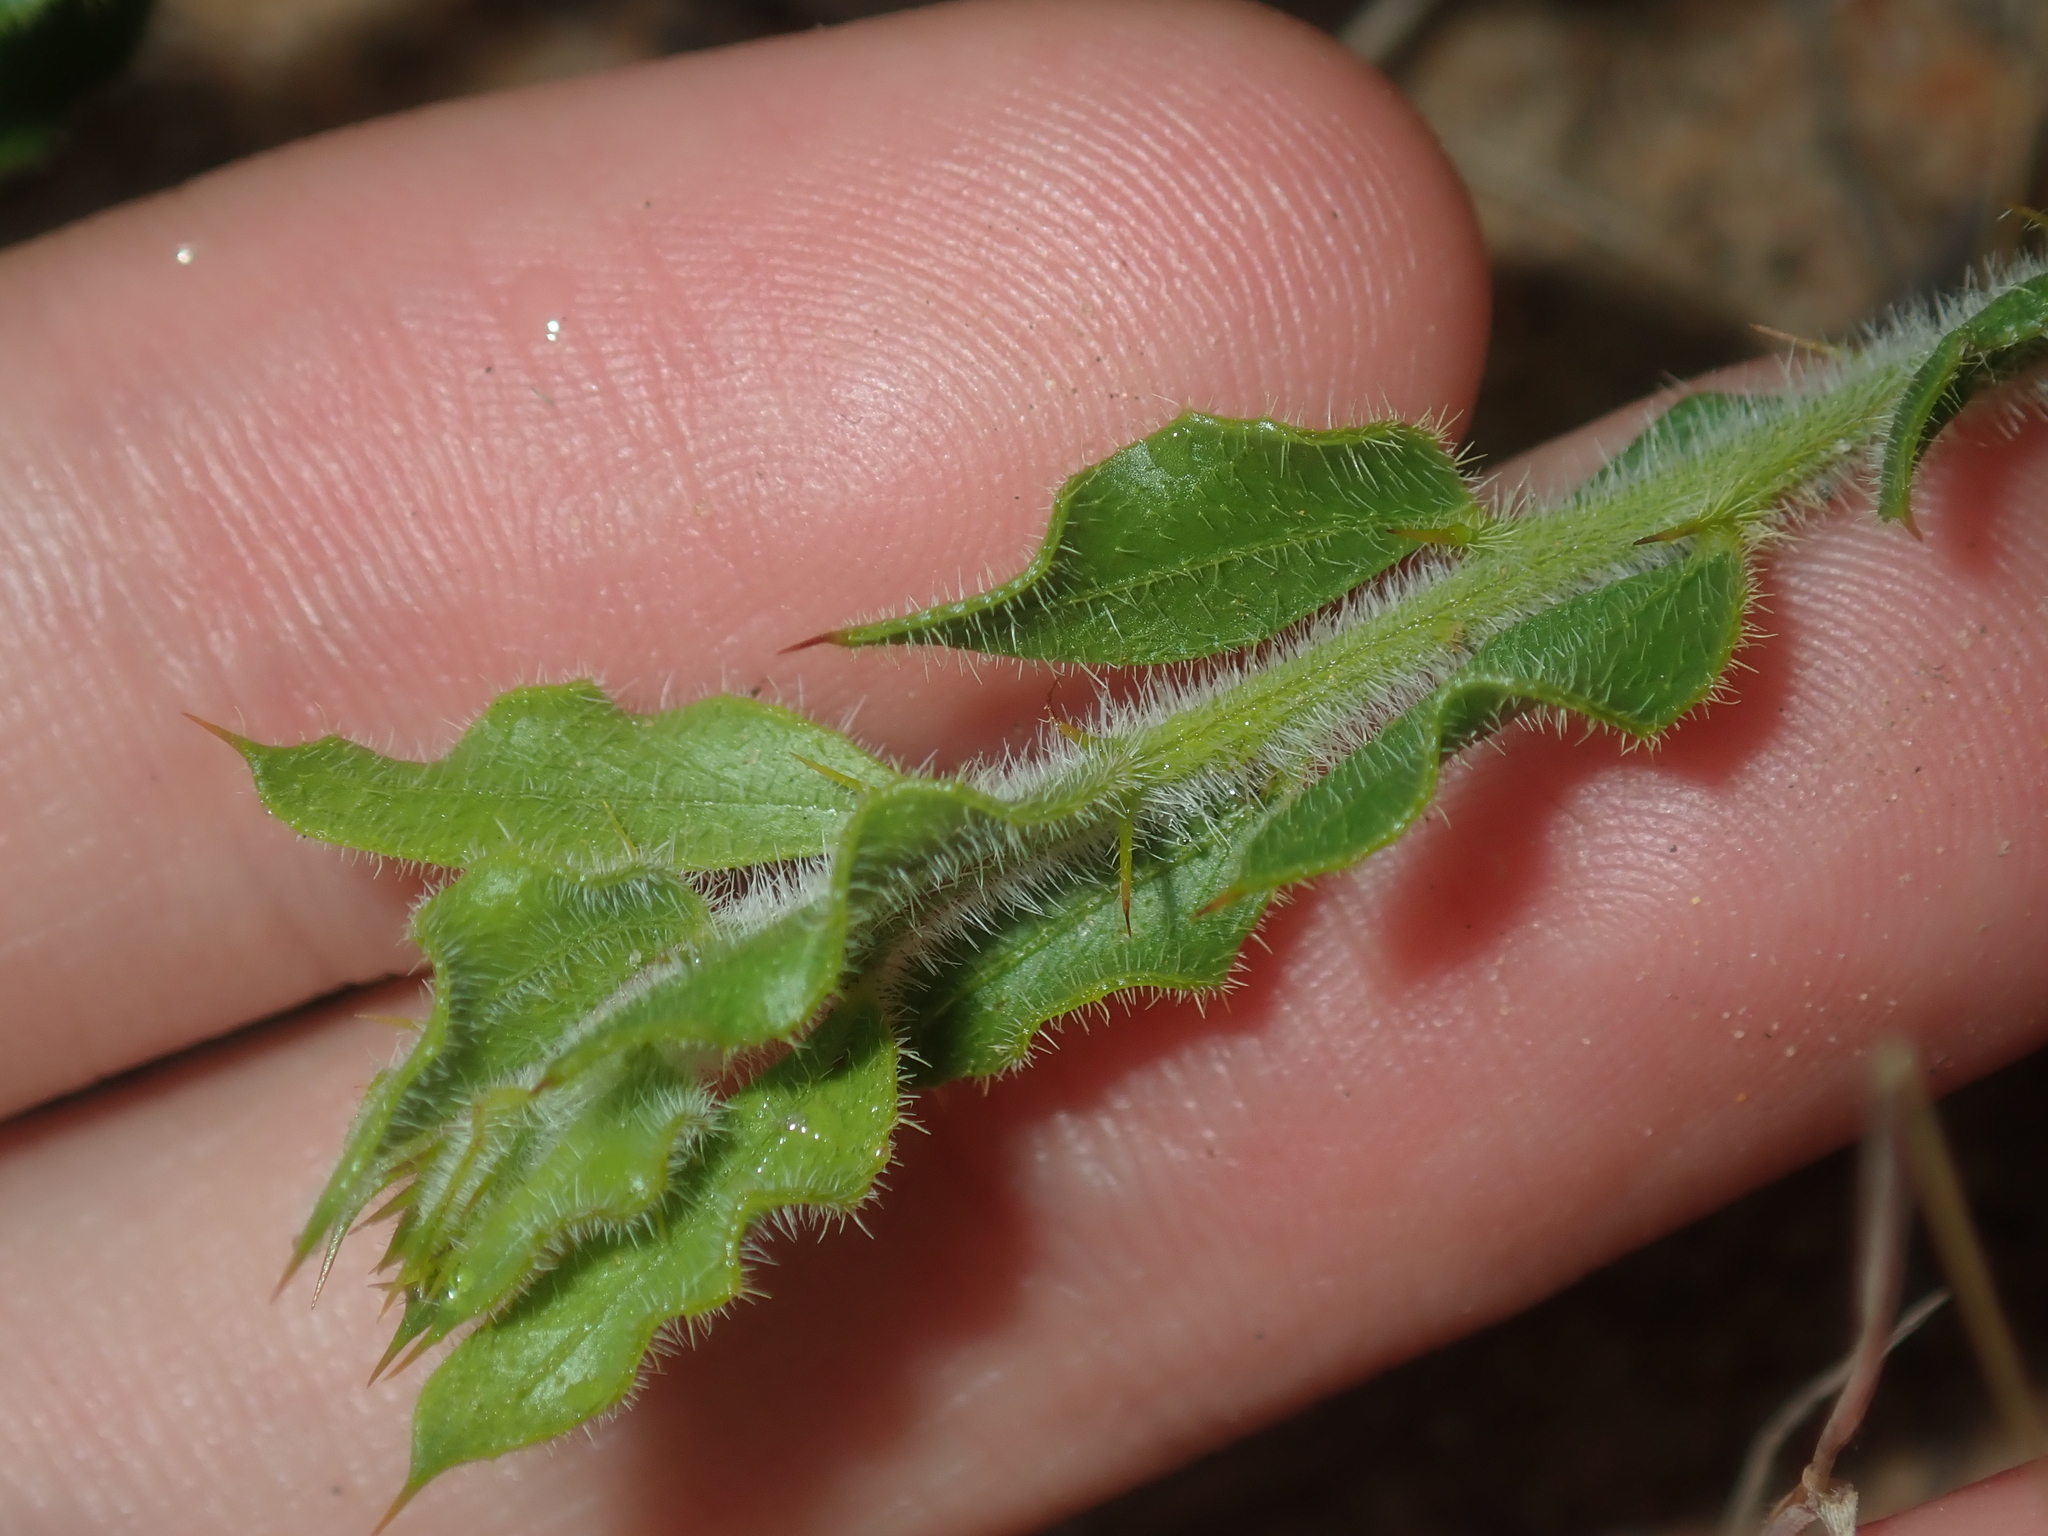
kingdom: Plantae
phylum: Tracheophyta
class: Magnoliopsida
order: Fabales
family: Fabaceae
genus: Acacia
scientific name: Acacia idiomorpha
